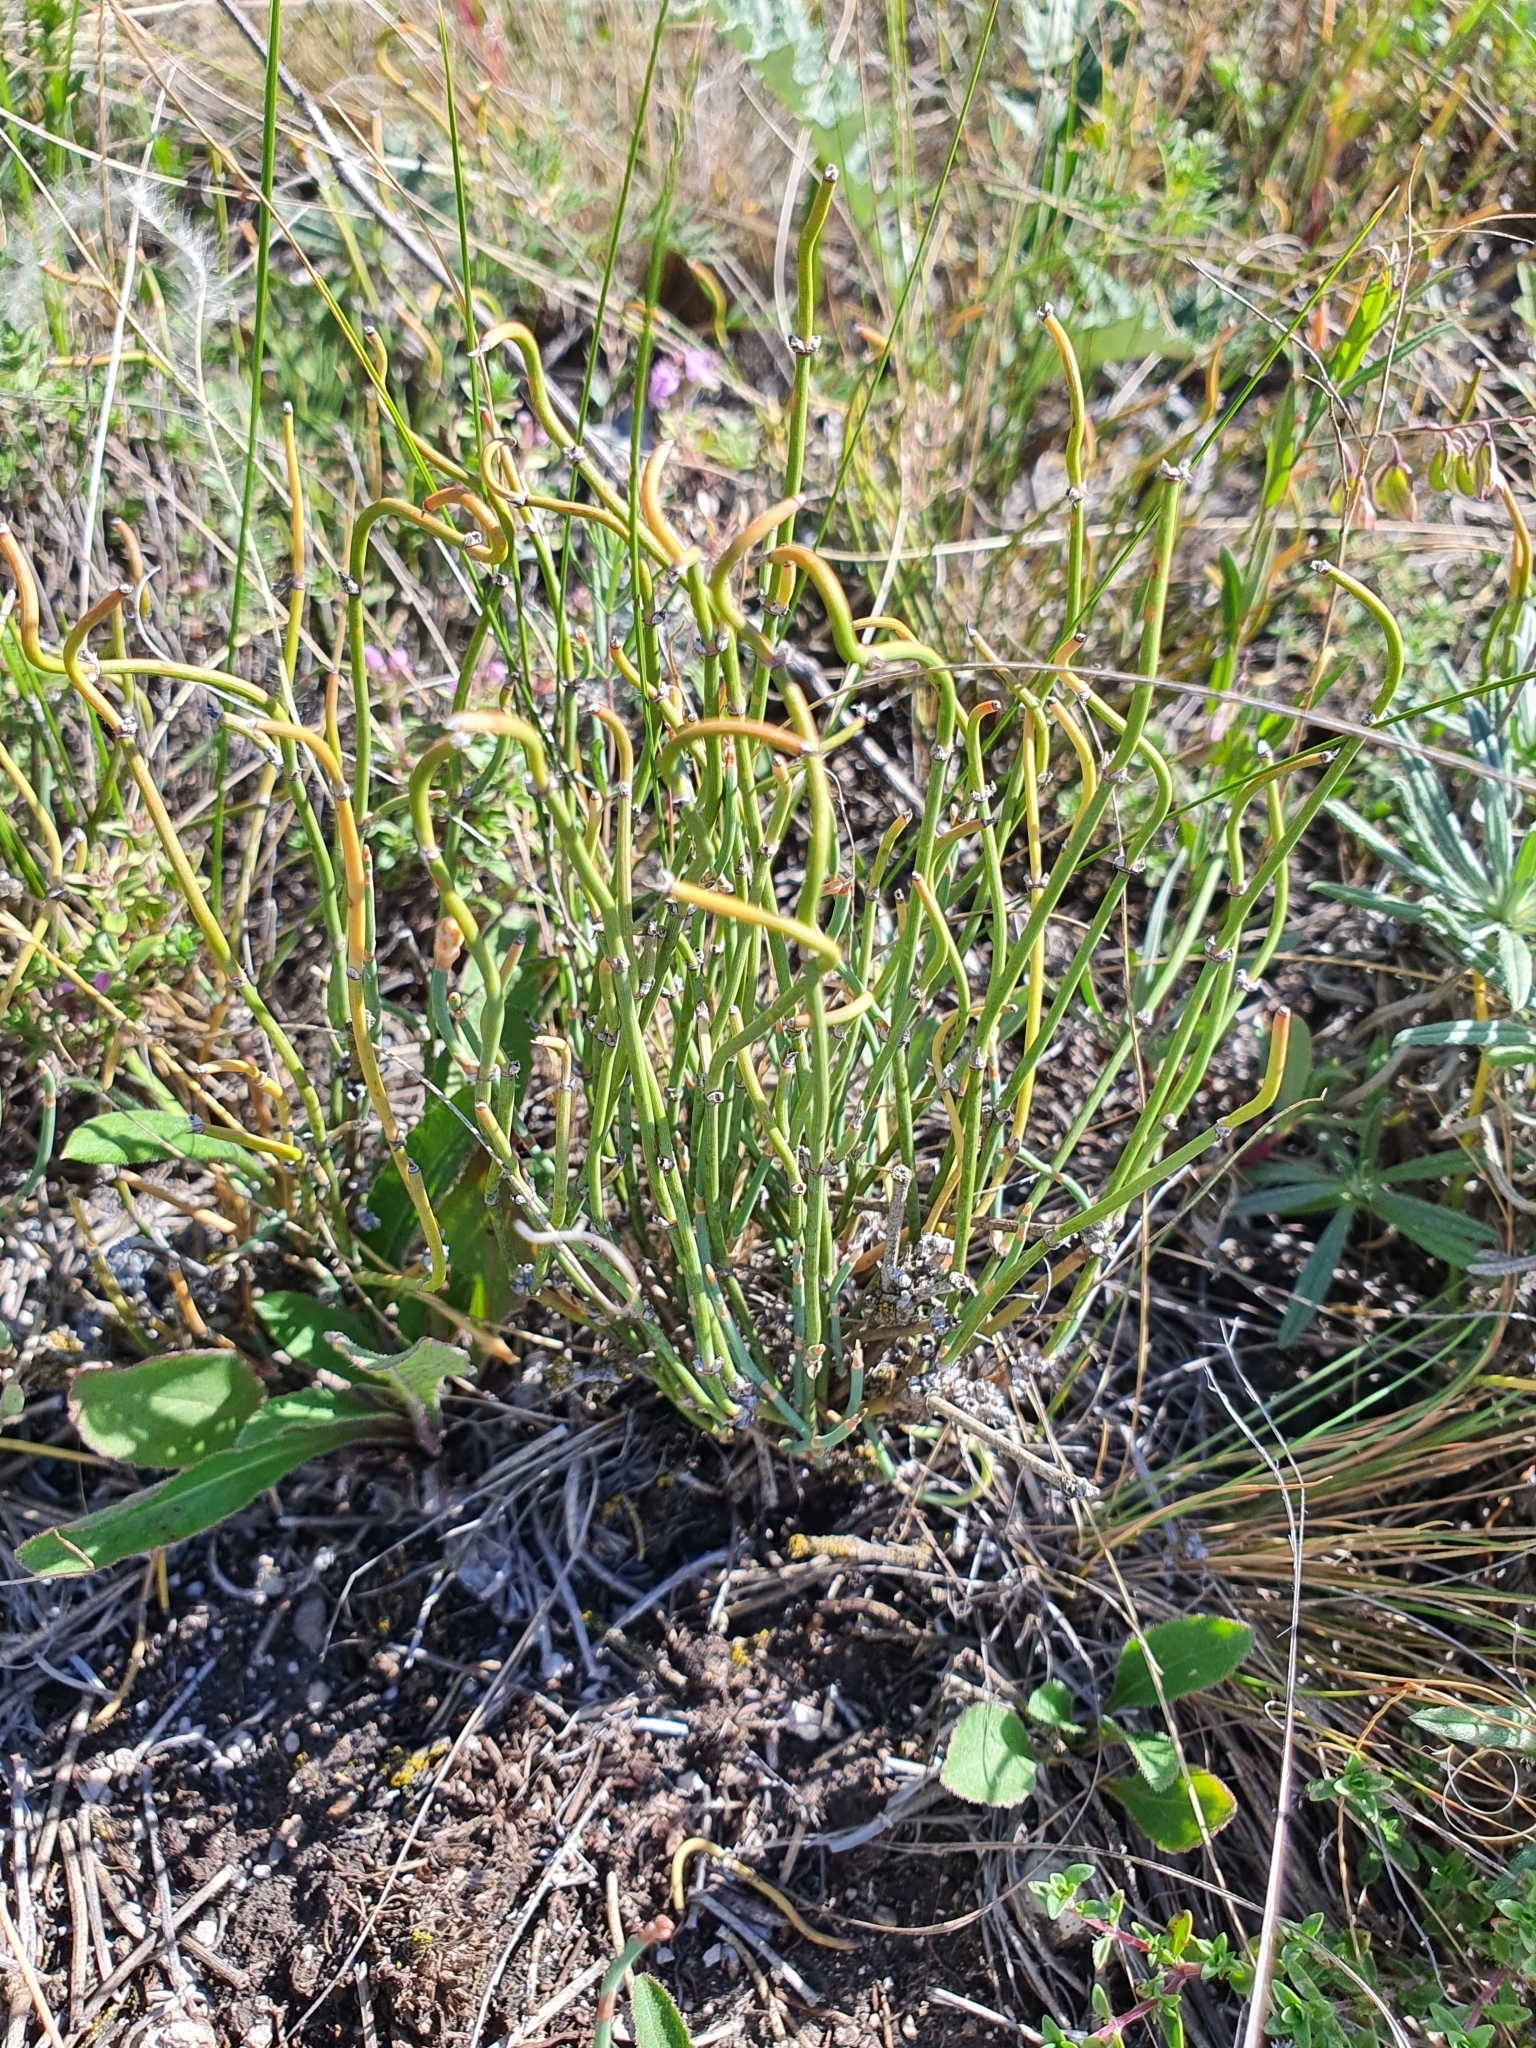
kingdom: Plantae
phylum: Tracheophyta
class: Gnetopsida
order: Ephedrales
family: Ephedraceae
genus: Ephedra
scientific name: Ephedra distachya
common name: Sea grape
